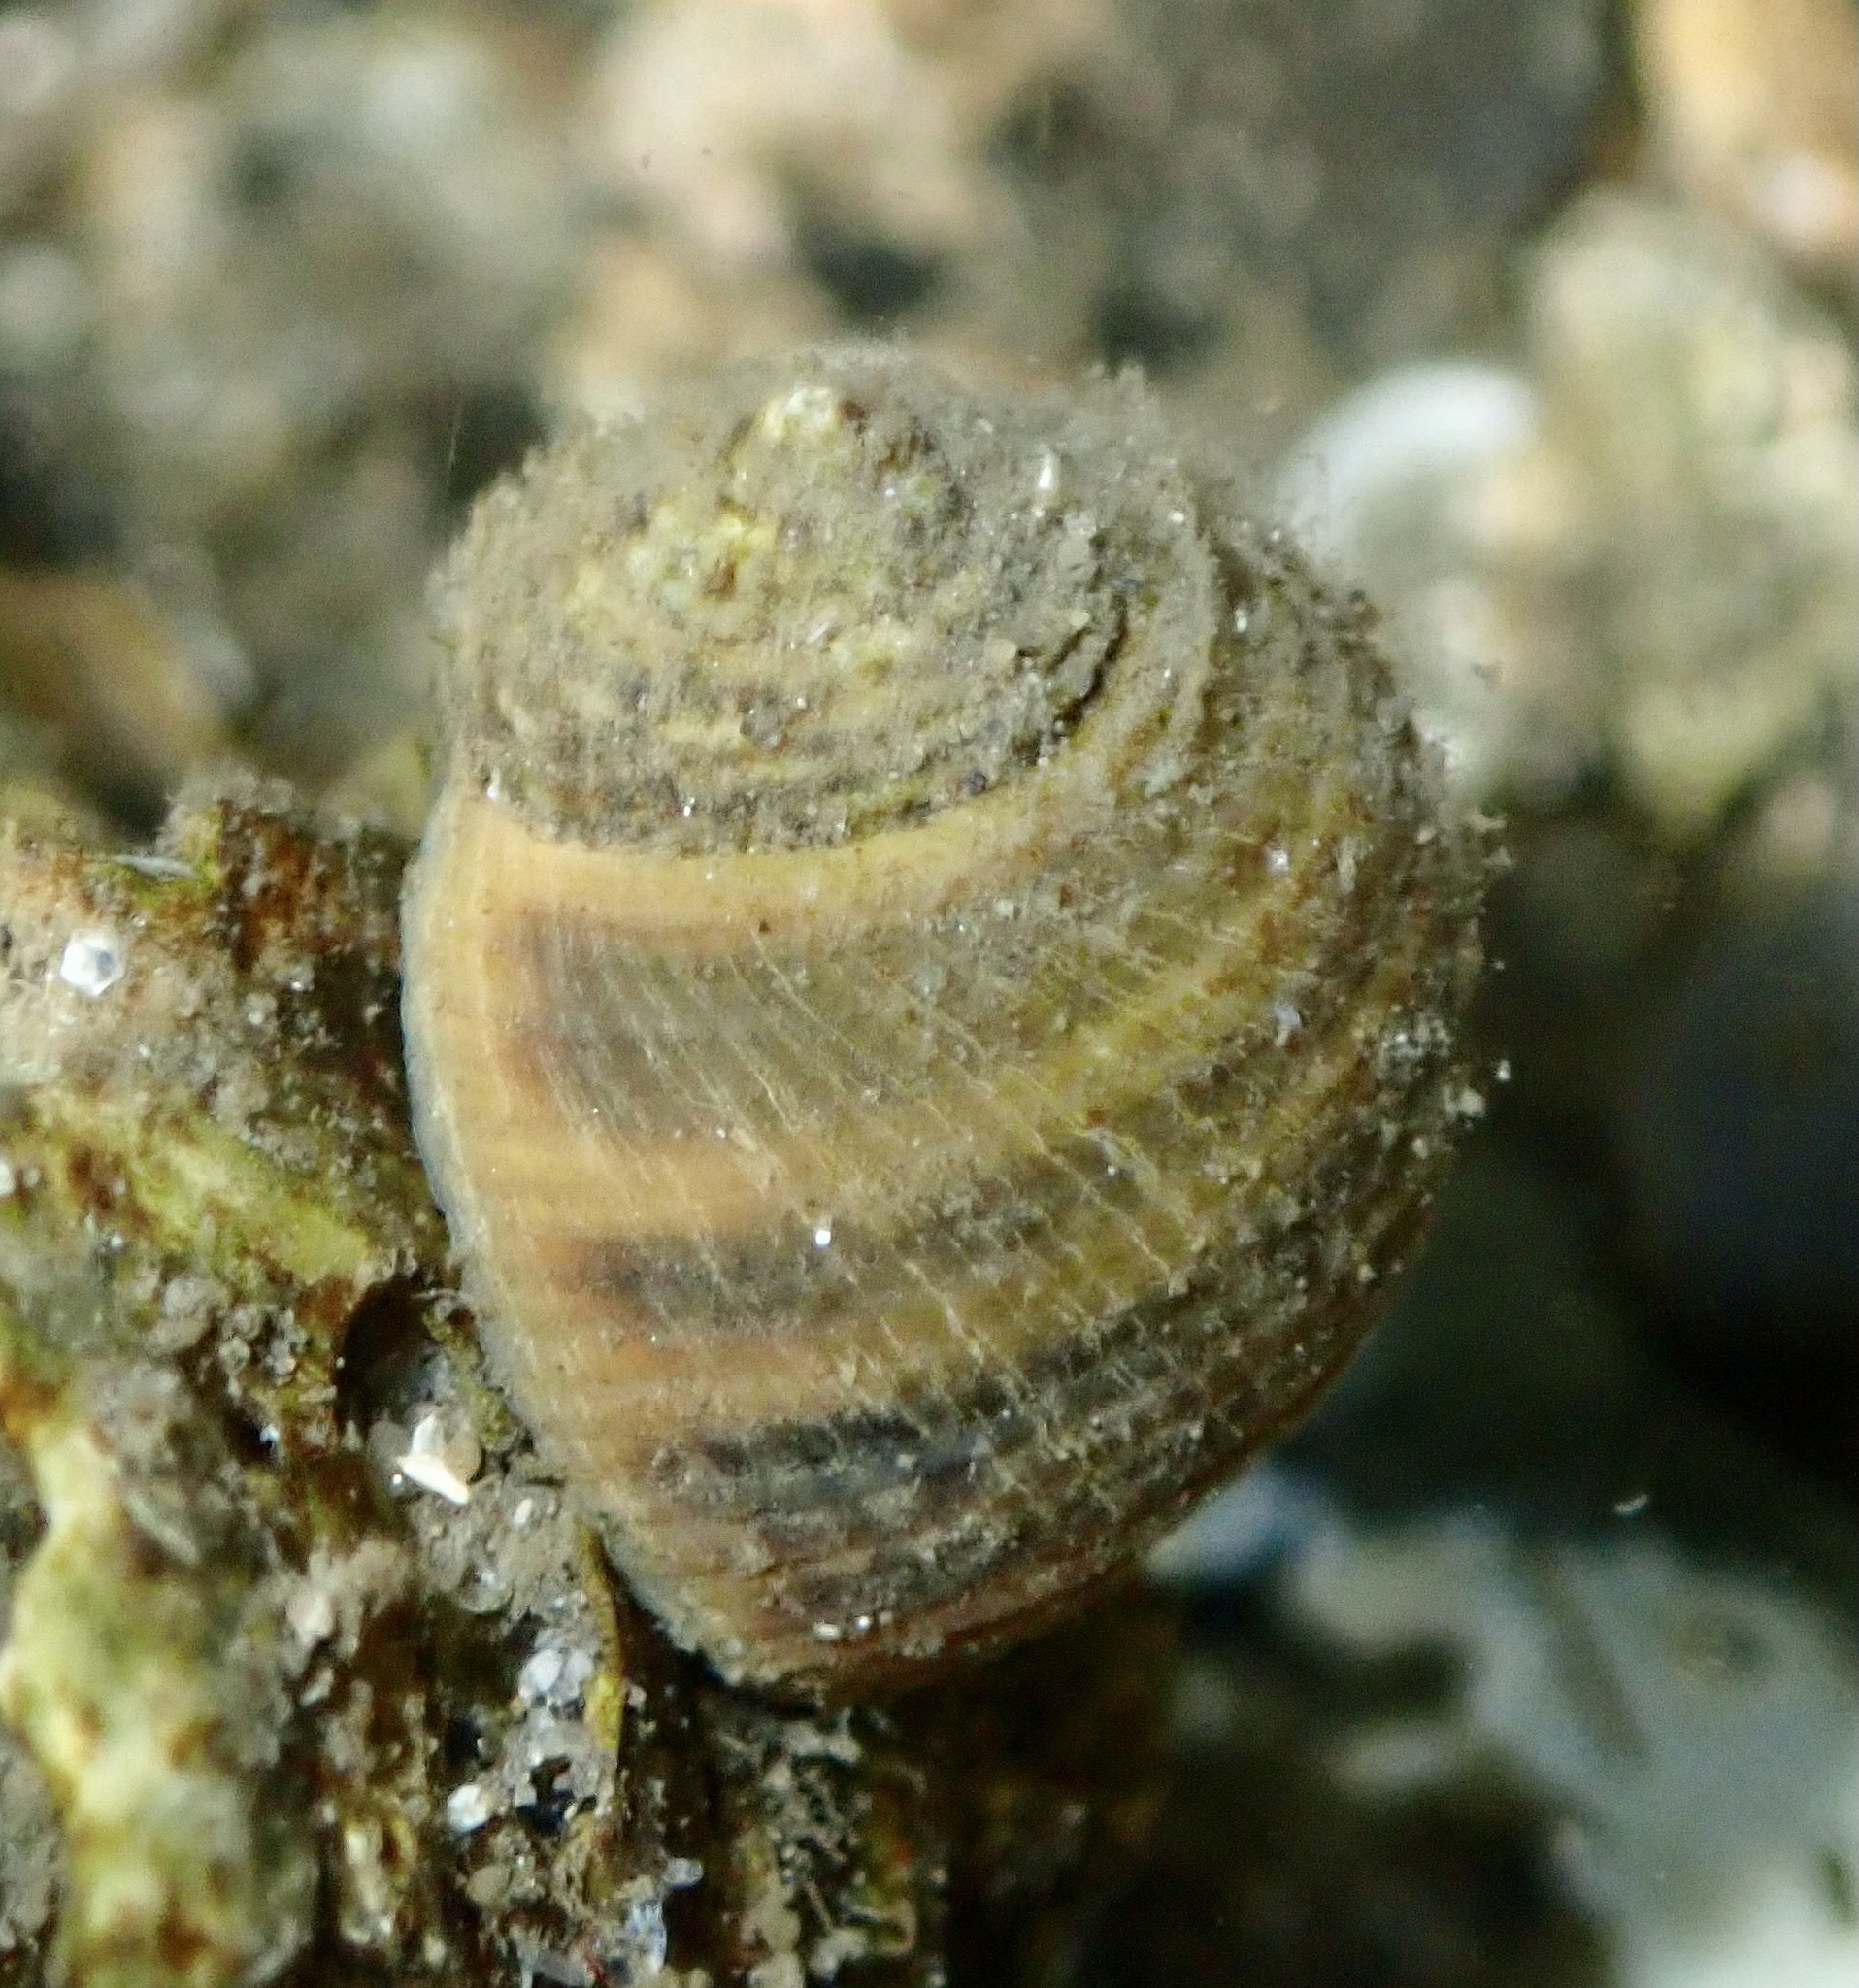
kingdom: Animalia
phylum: Mollusca
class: Gastropoda
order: Littorinimorpha
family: Littorinidae
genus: Littorina
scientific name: Littorina littorea
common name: Common periwinkle
